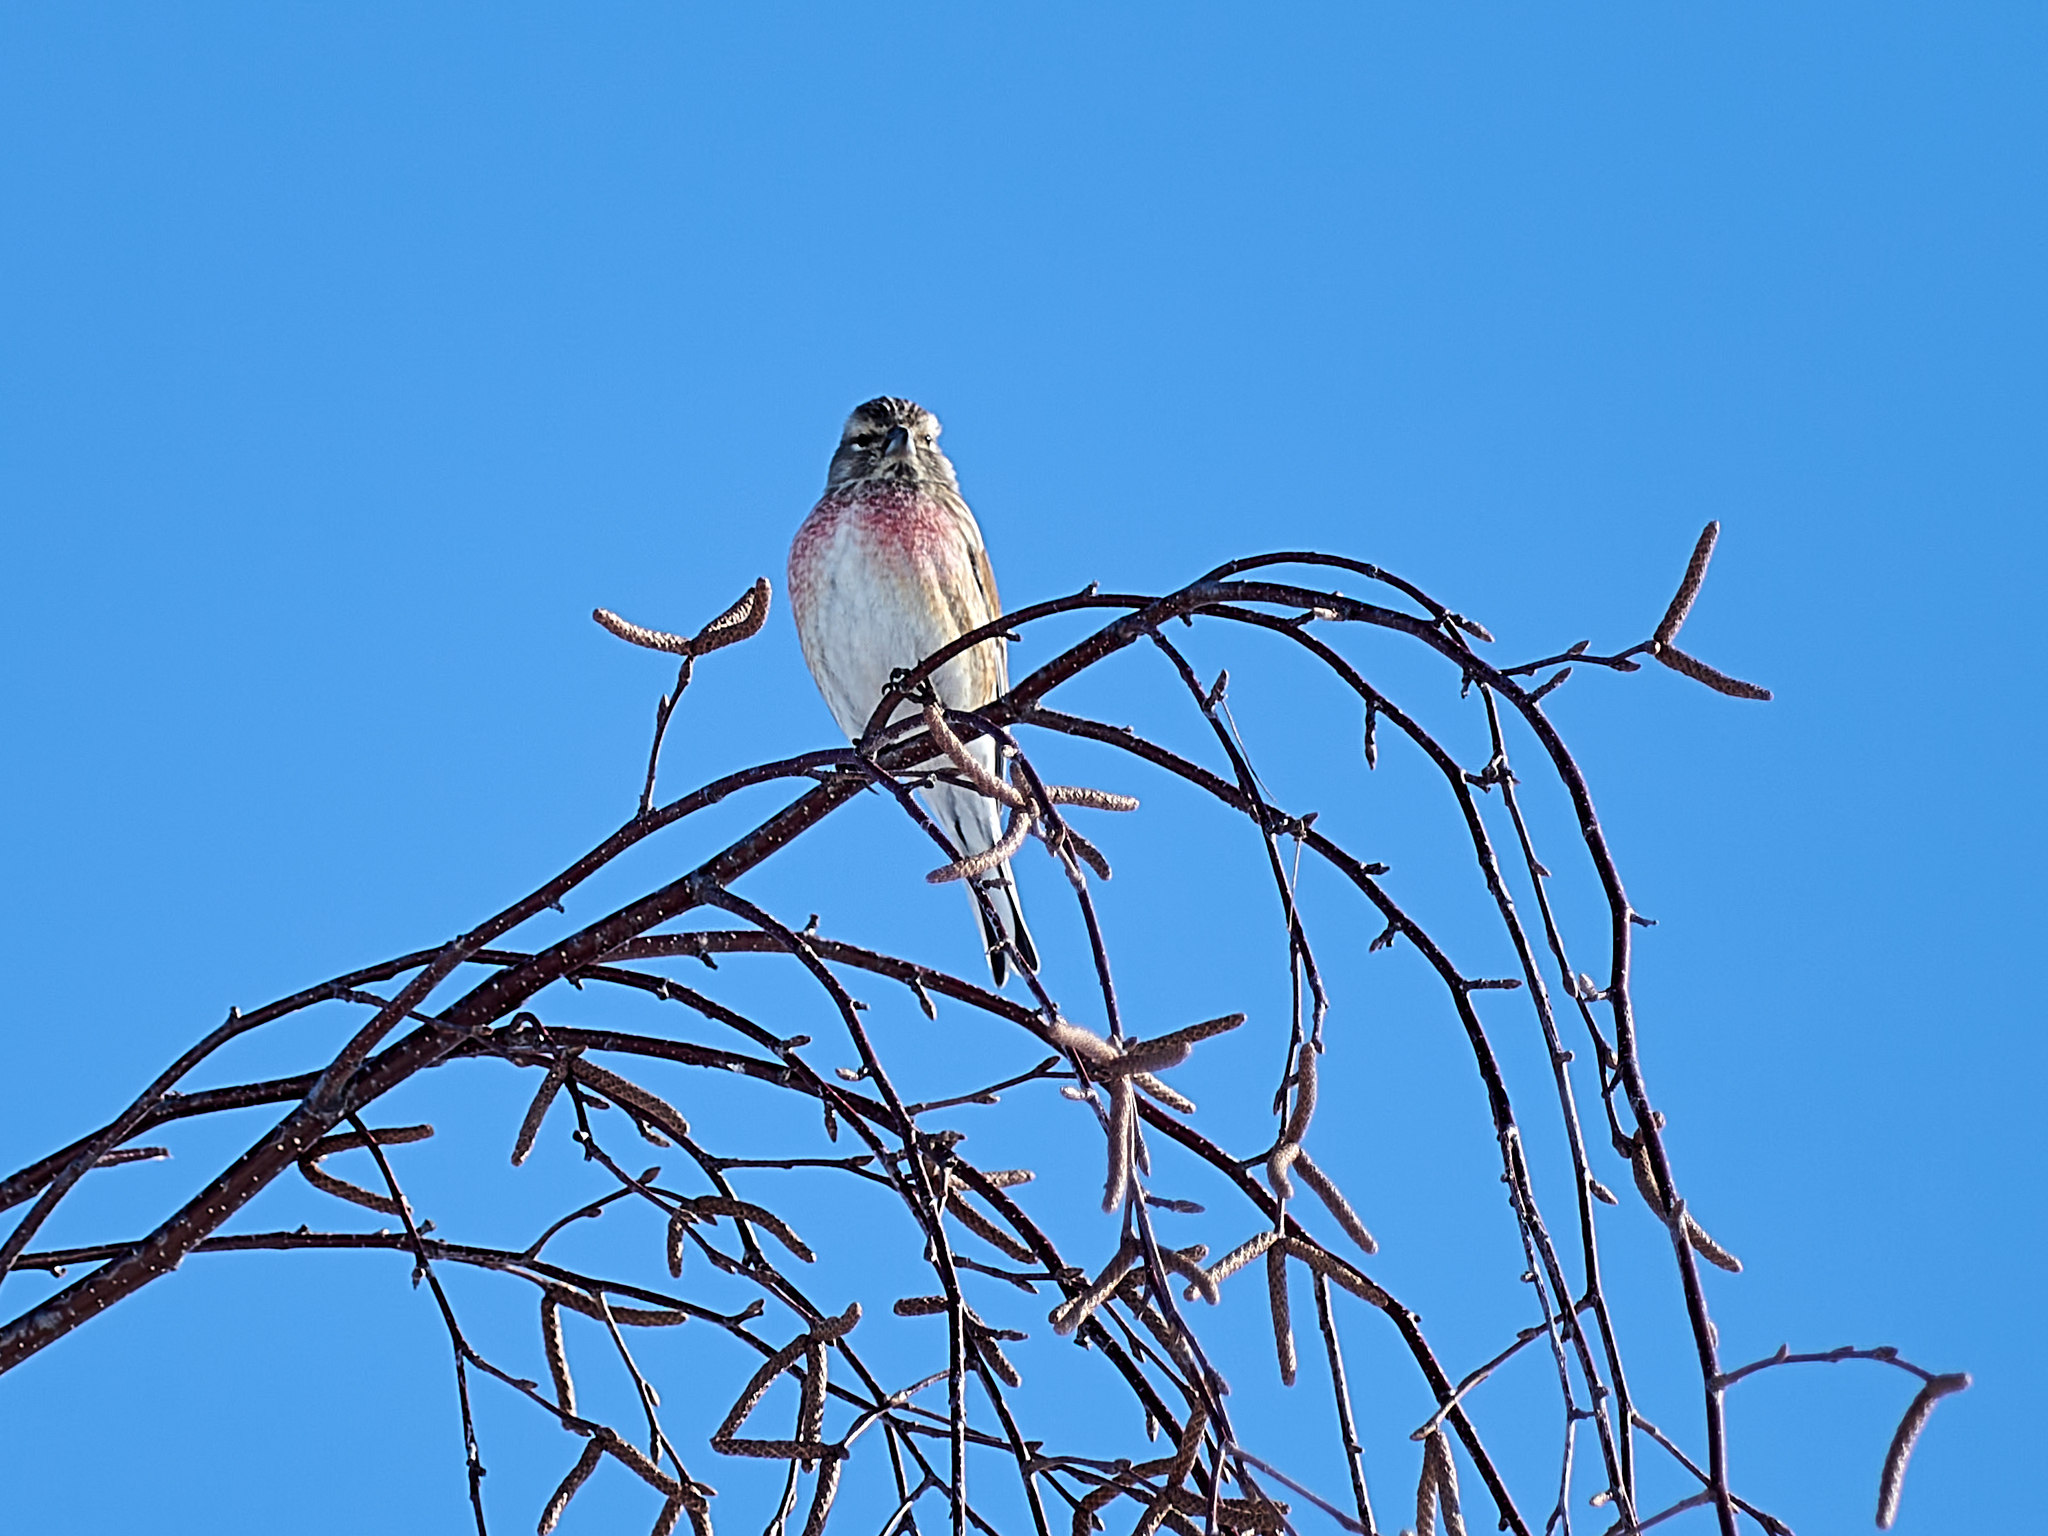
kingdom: Animalia
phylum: Chordata
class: Aves
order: Passeriformes
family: Fringillidae
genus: Linaria
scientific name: Linaria cannabina
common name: Common linnet
